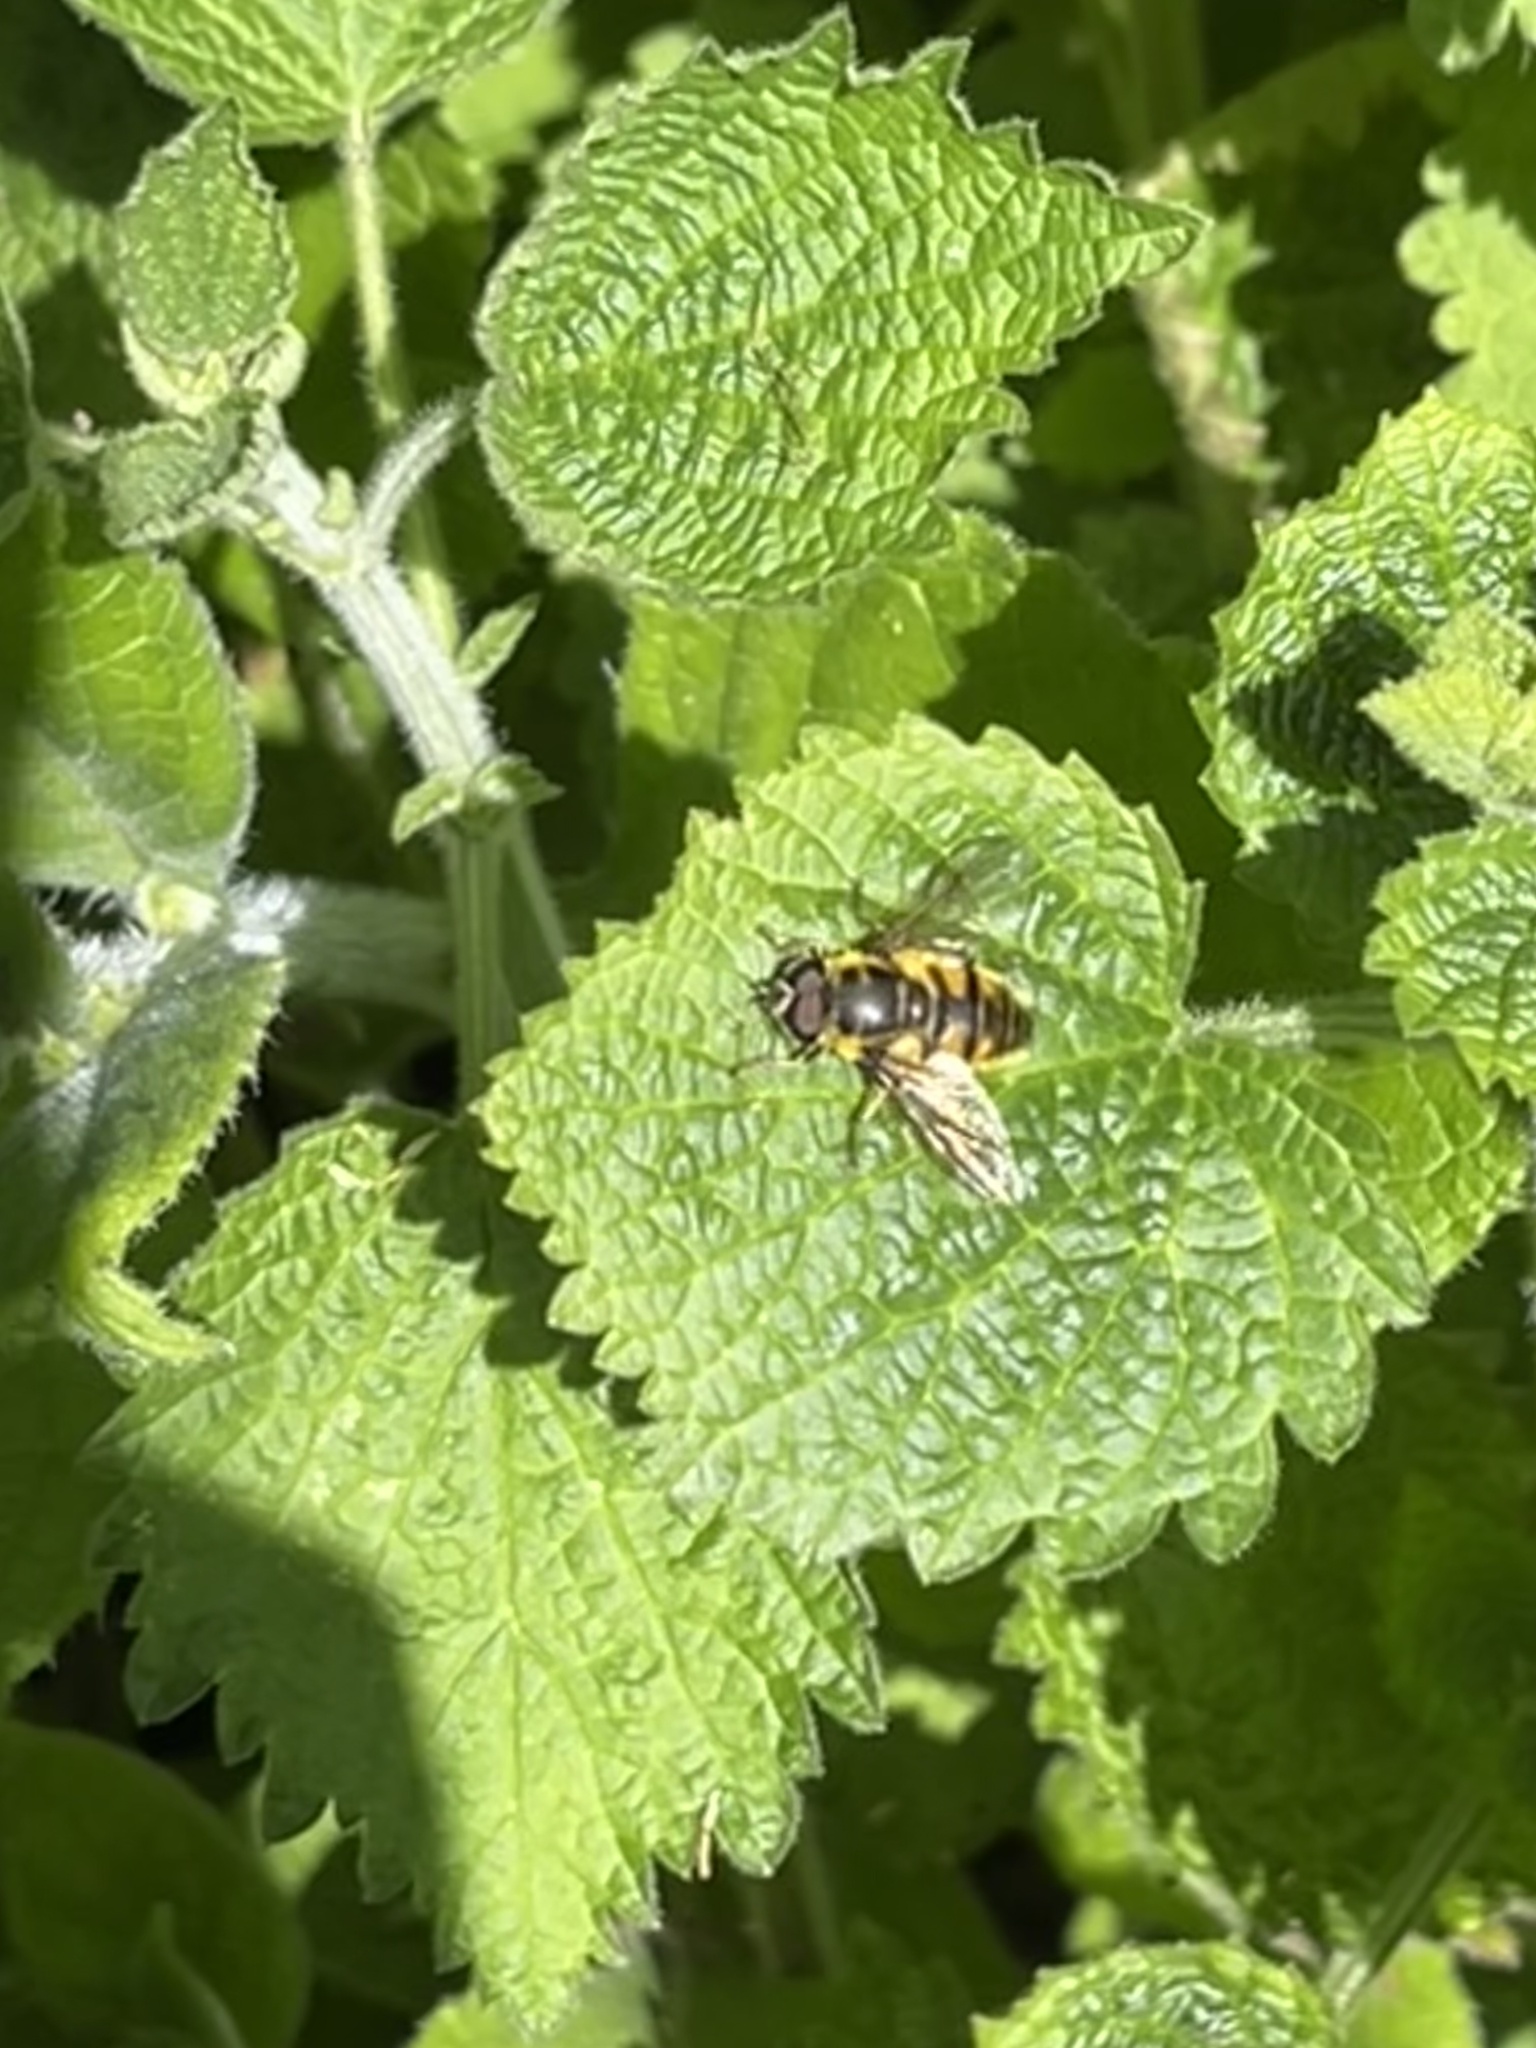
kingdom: Animalia
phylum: Arthropoda
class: Insecta
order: Diptera
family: Syrphidae
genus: Myathropa
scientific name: Myathropa florea
